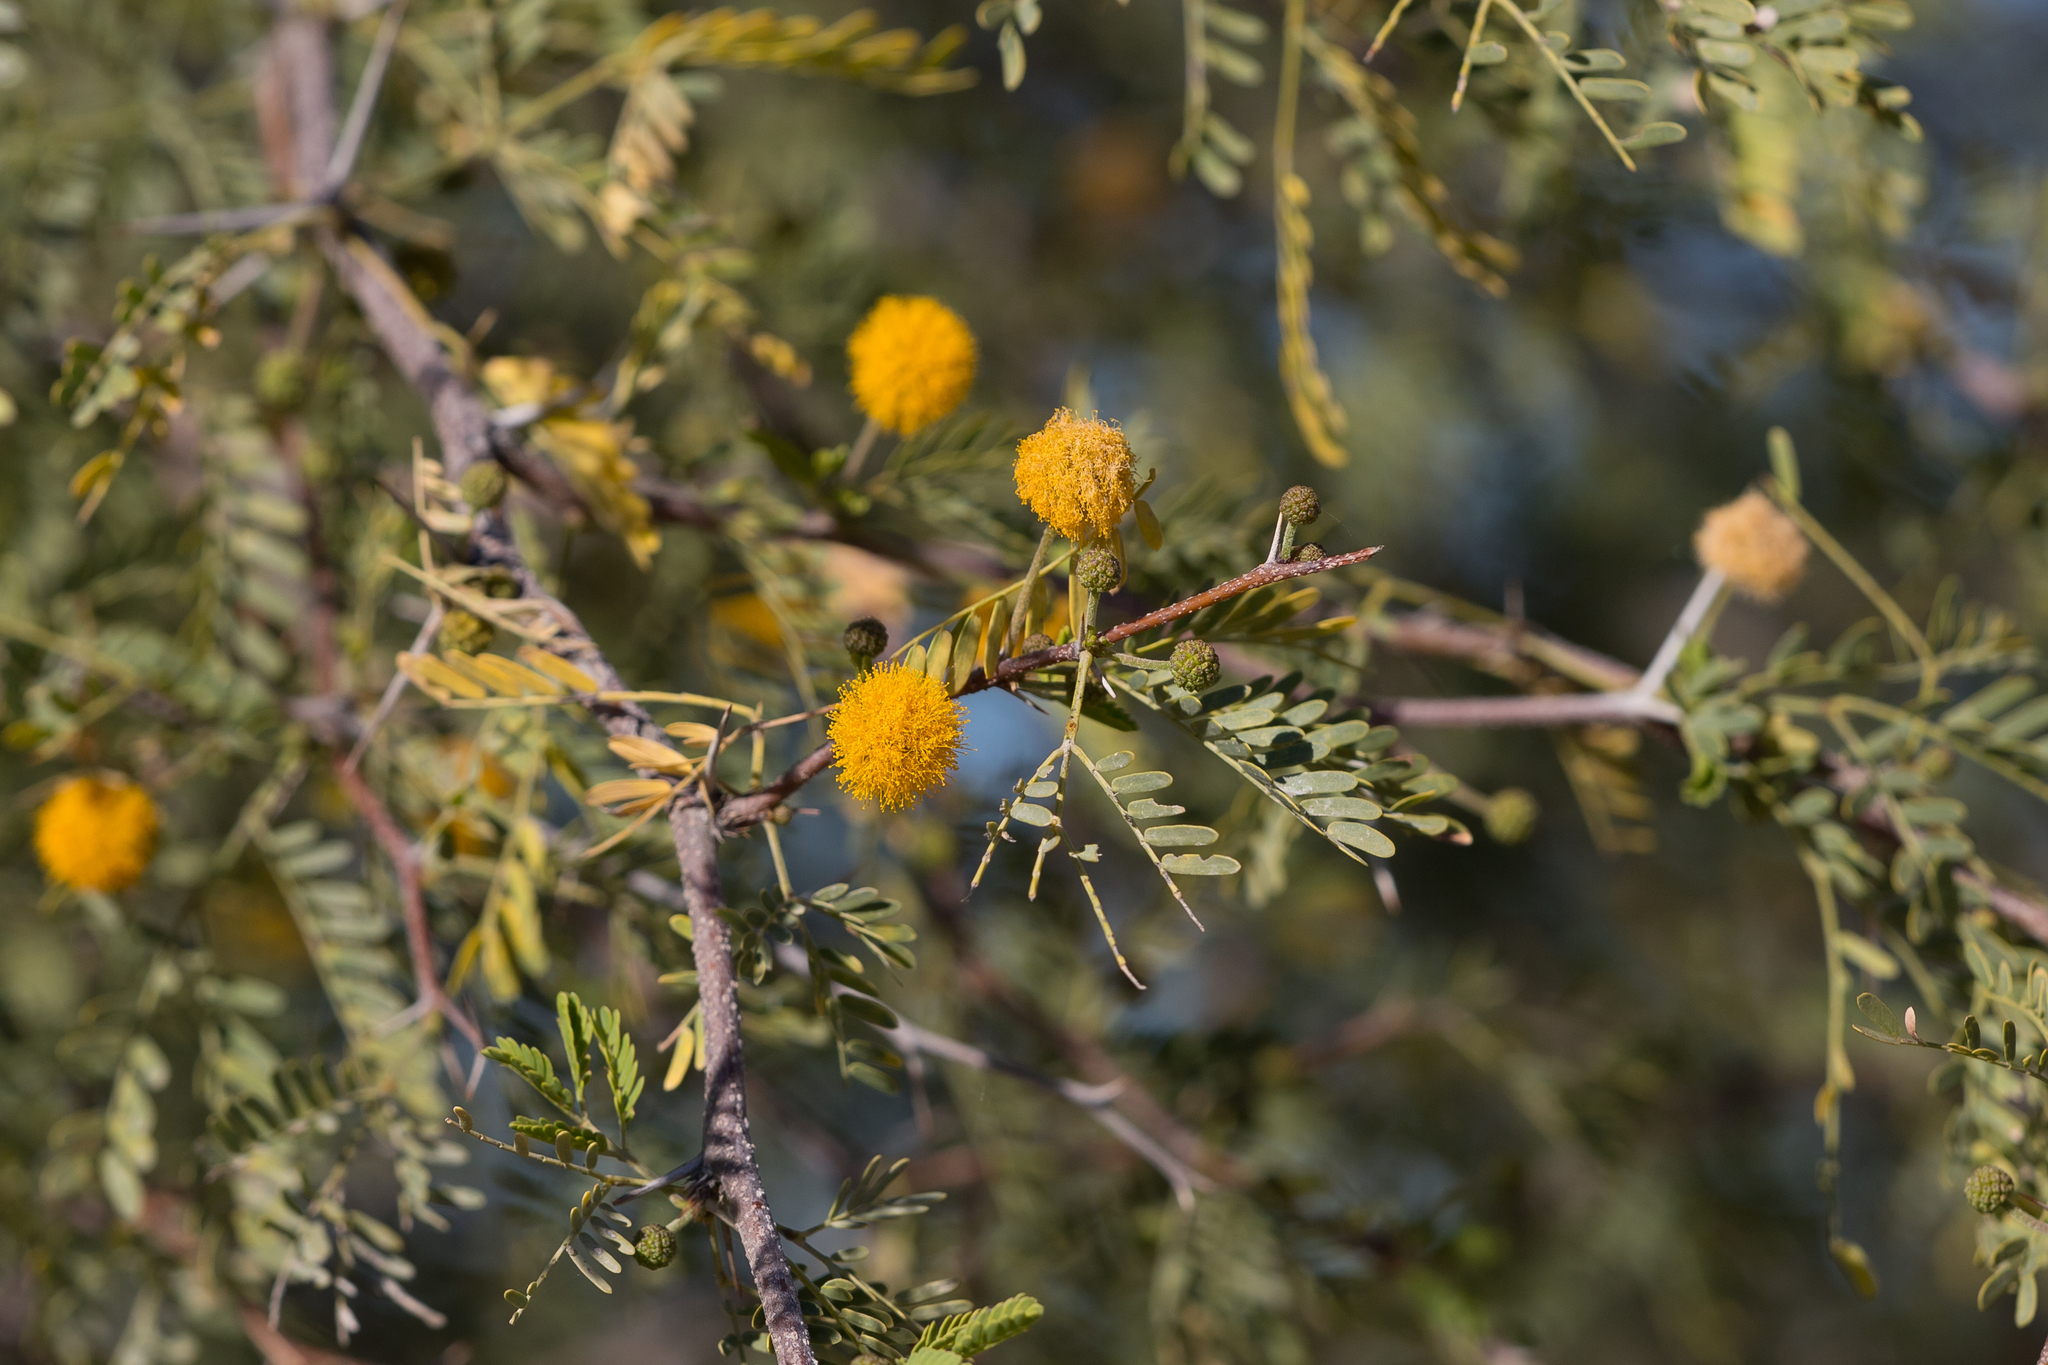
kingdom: Plantae
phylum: Tracheophyta
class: Magnoliopsida
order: Fabales
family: Fabaceae
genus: Vachellia
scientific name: Vachellia farnesiana
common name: Sweet acacia
